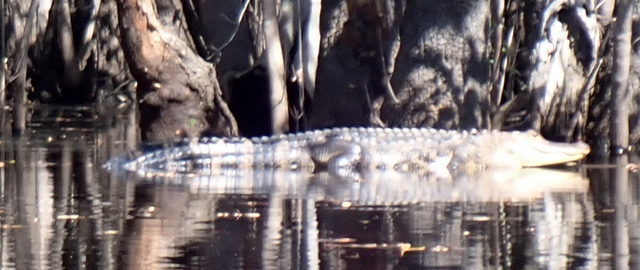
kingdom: Animalia
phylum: Chordata
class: Crocodylia
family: Alligatoridae
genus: Alligator
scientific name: Alligator mississippiensis
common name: American alligator
